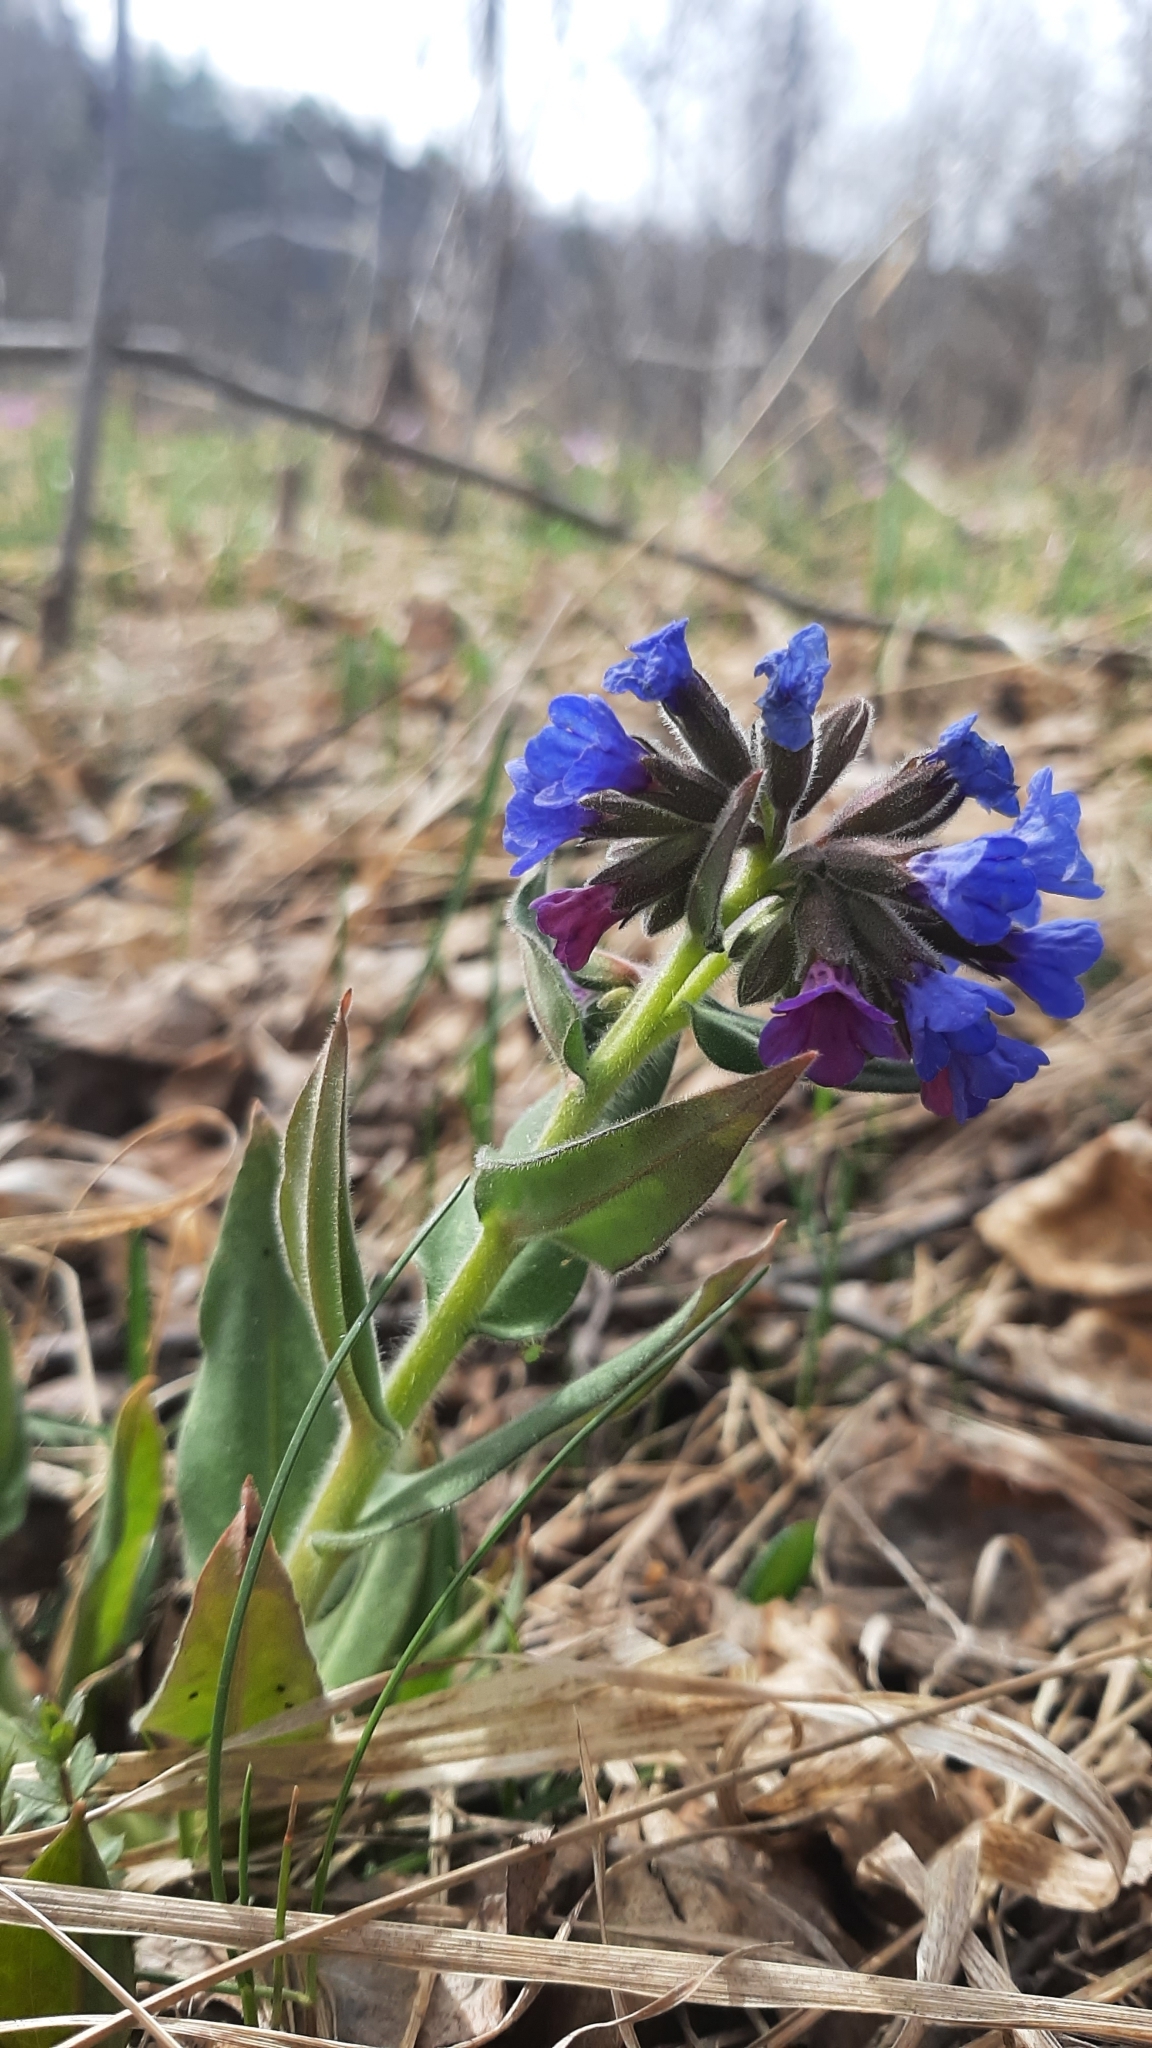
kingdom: Plantae
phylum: Tracheophyta
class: Magnoliopsida
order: Boraginales
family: Boraginaceae
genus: Pulmonaria
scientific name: Pulmonaria mollis
